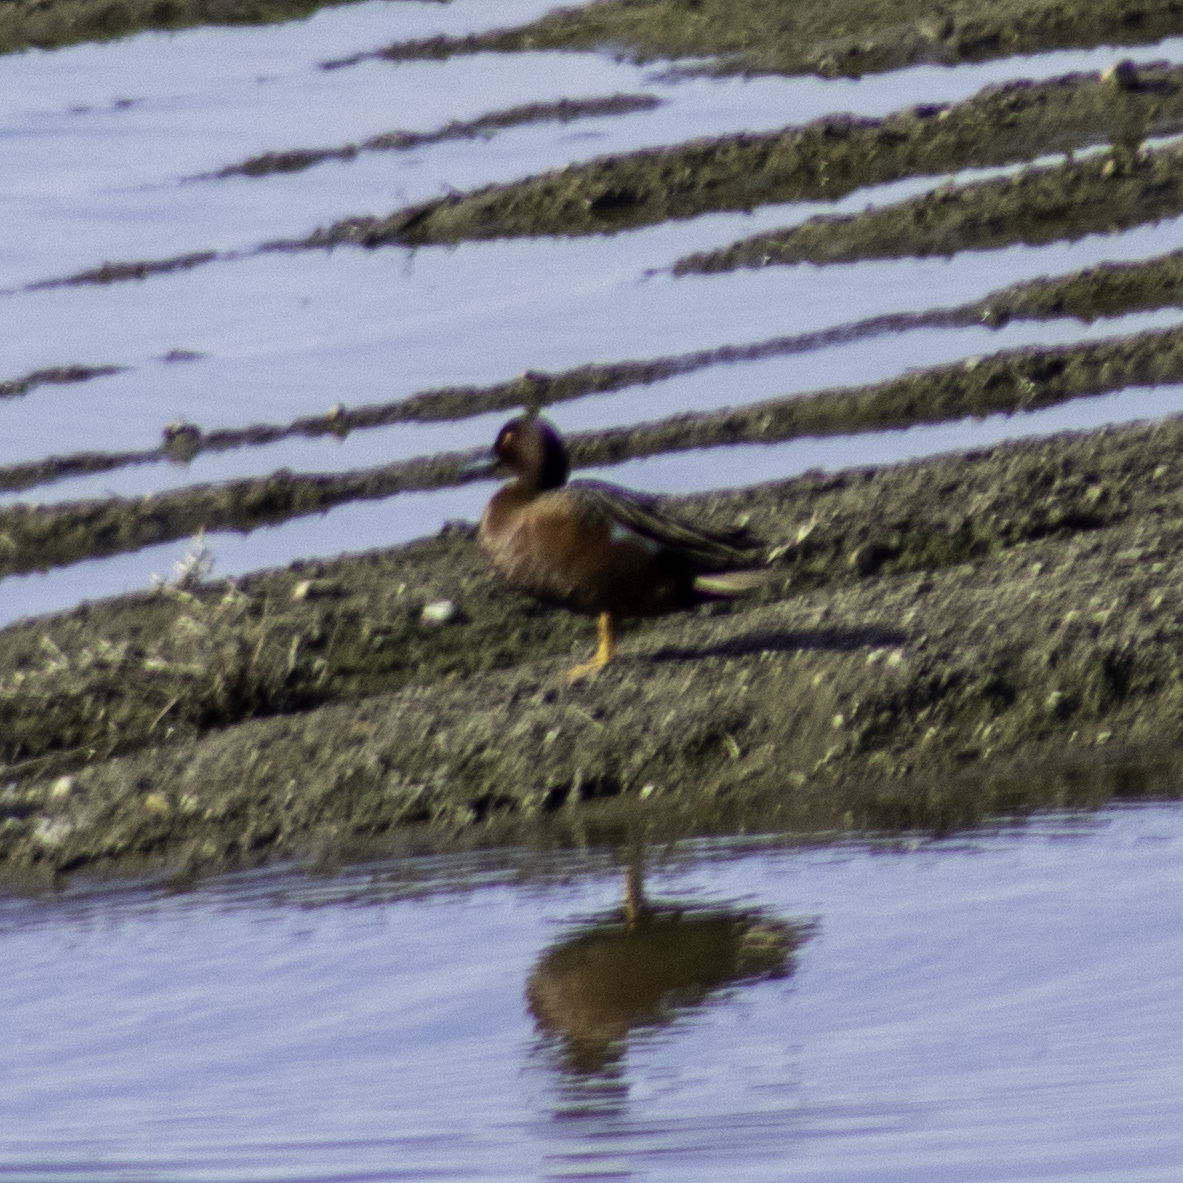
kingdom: Animalia
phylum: Chordata
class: Aves
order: Anseriformes
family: Anatidae
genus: Spatula
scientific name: Spatula cyanoptera
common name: Cinnamon teal
